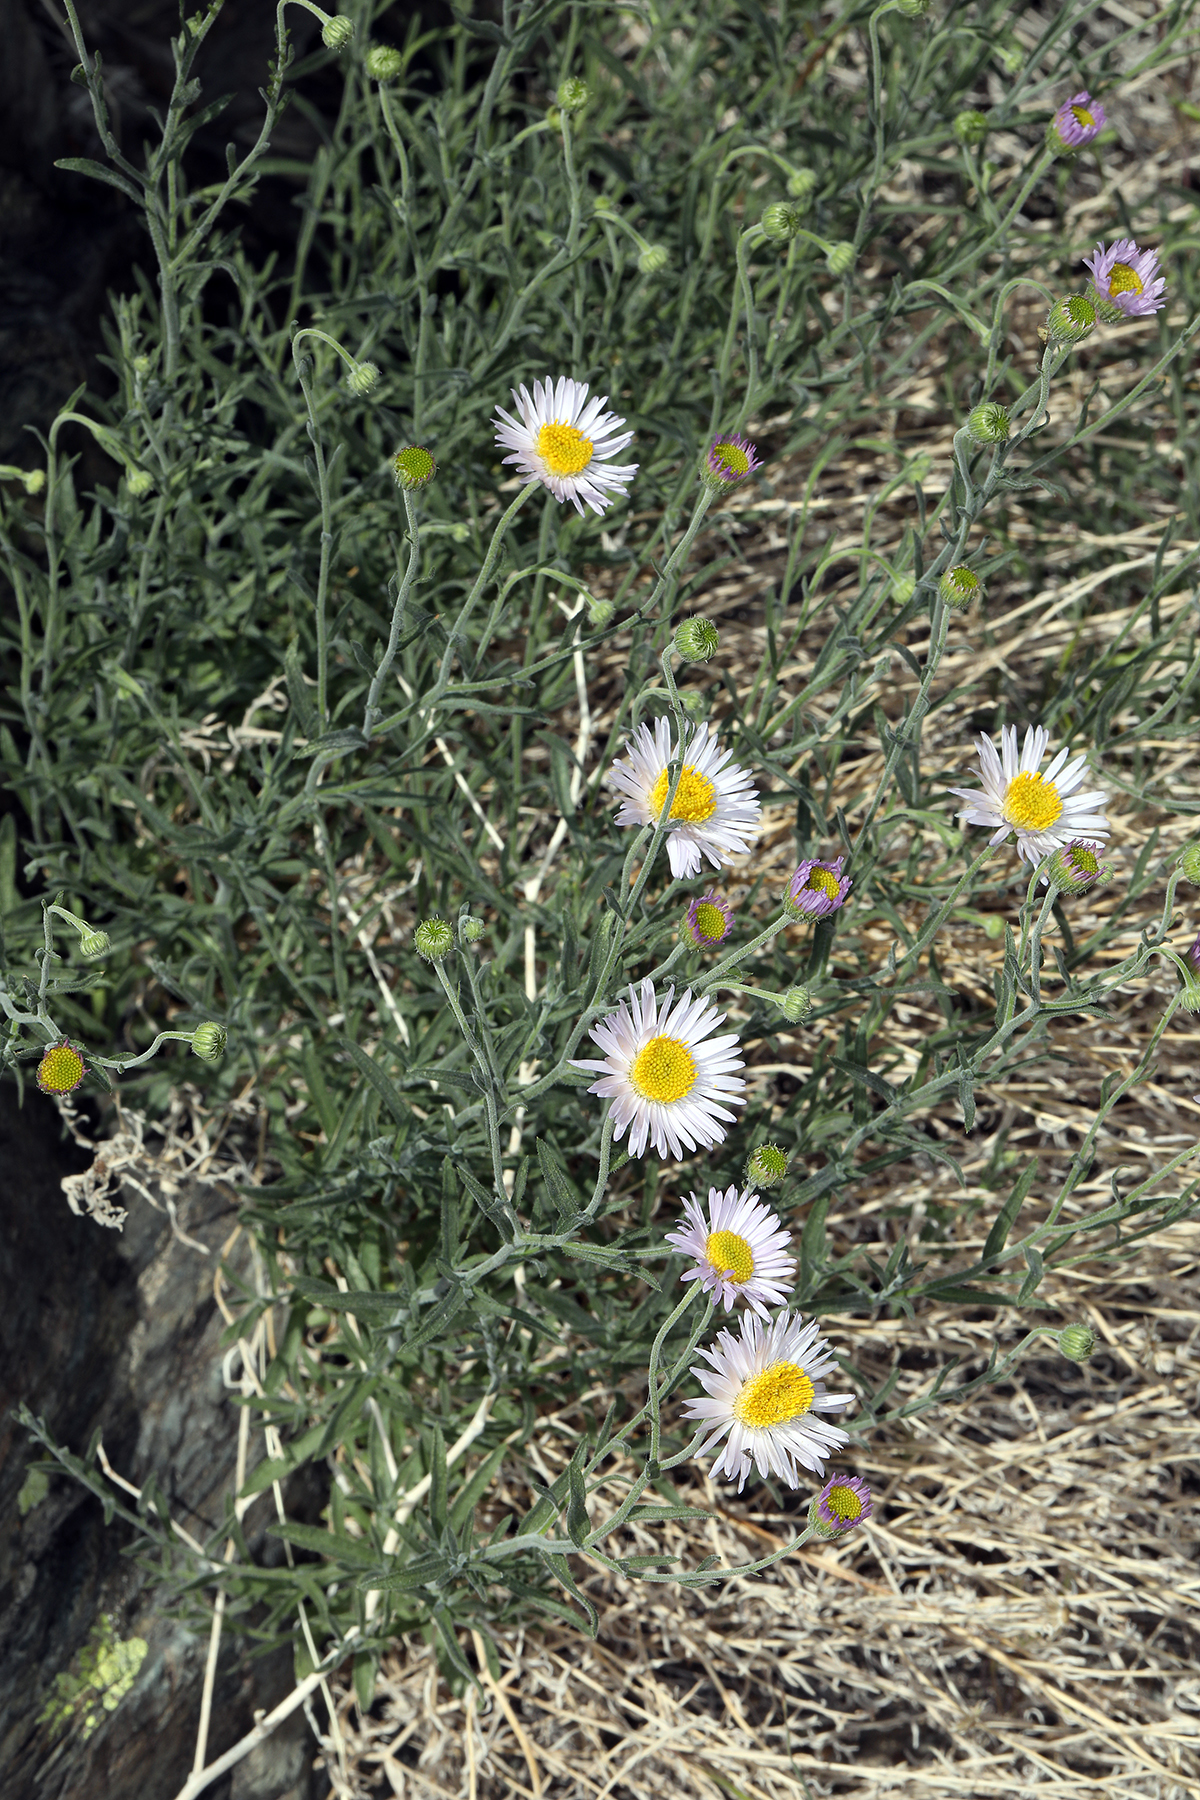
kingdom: Plantae
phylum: Tracheophyta
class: Magnoliopsida
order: Asterales
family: Asteraceae
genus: Erigeron
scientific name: Erigeron breweri
